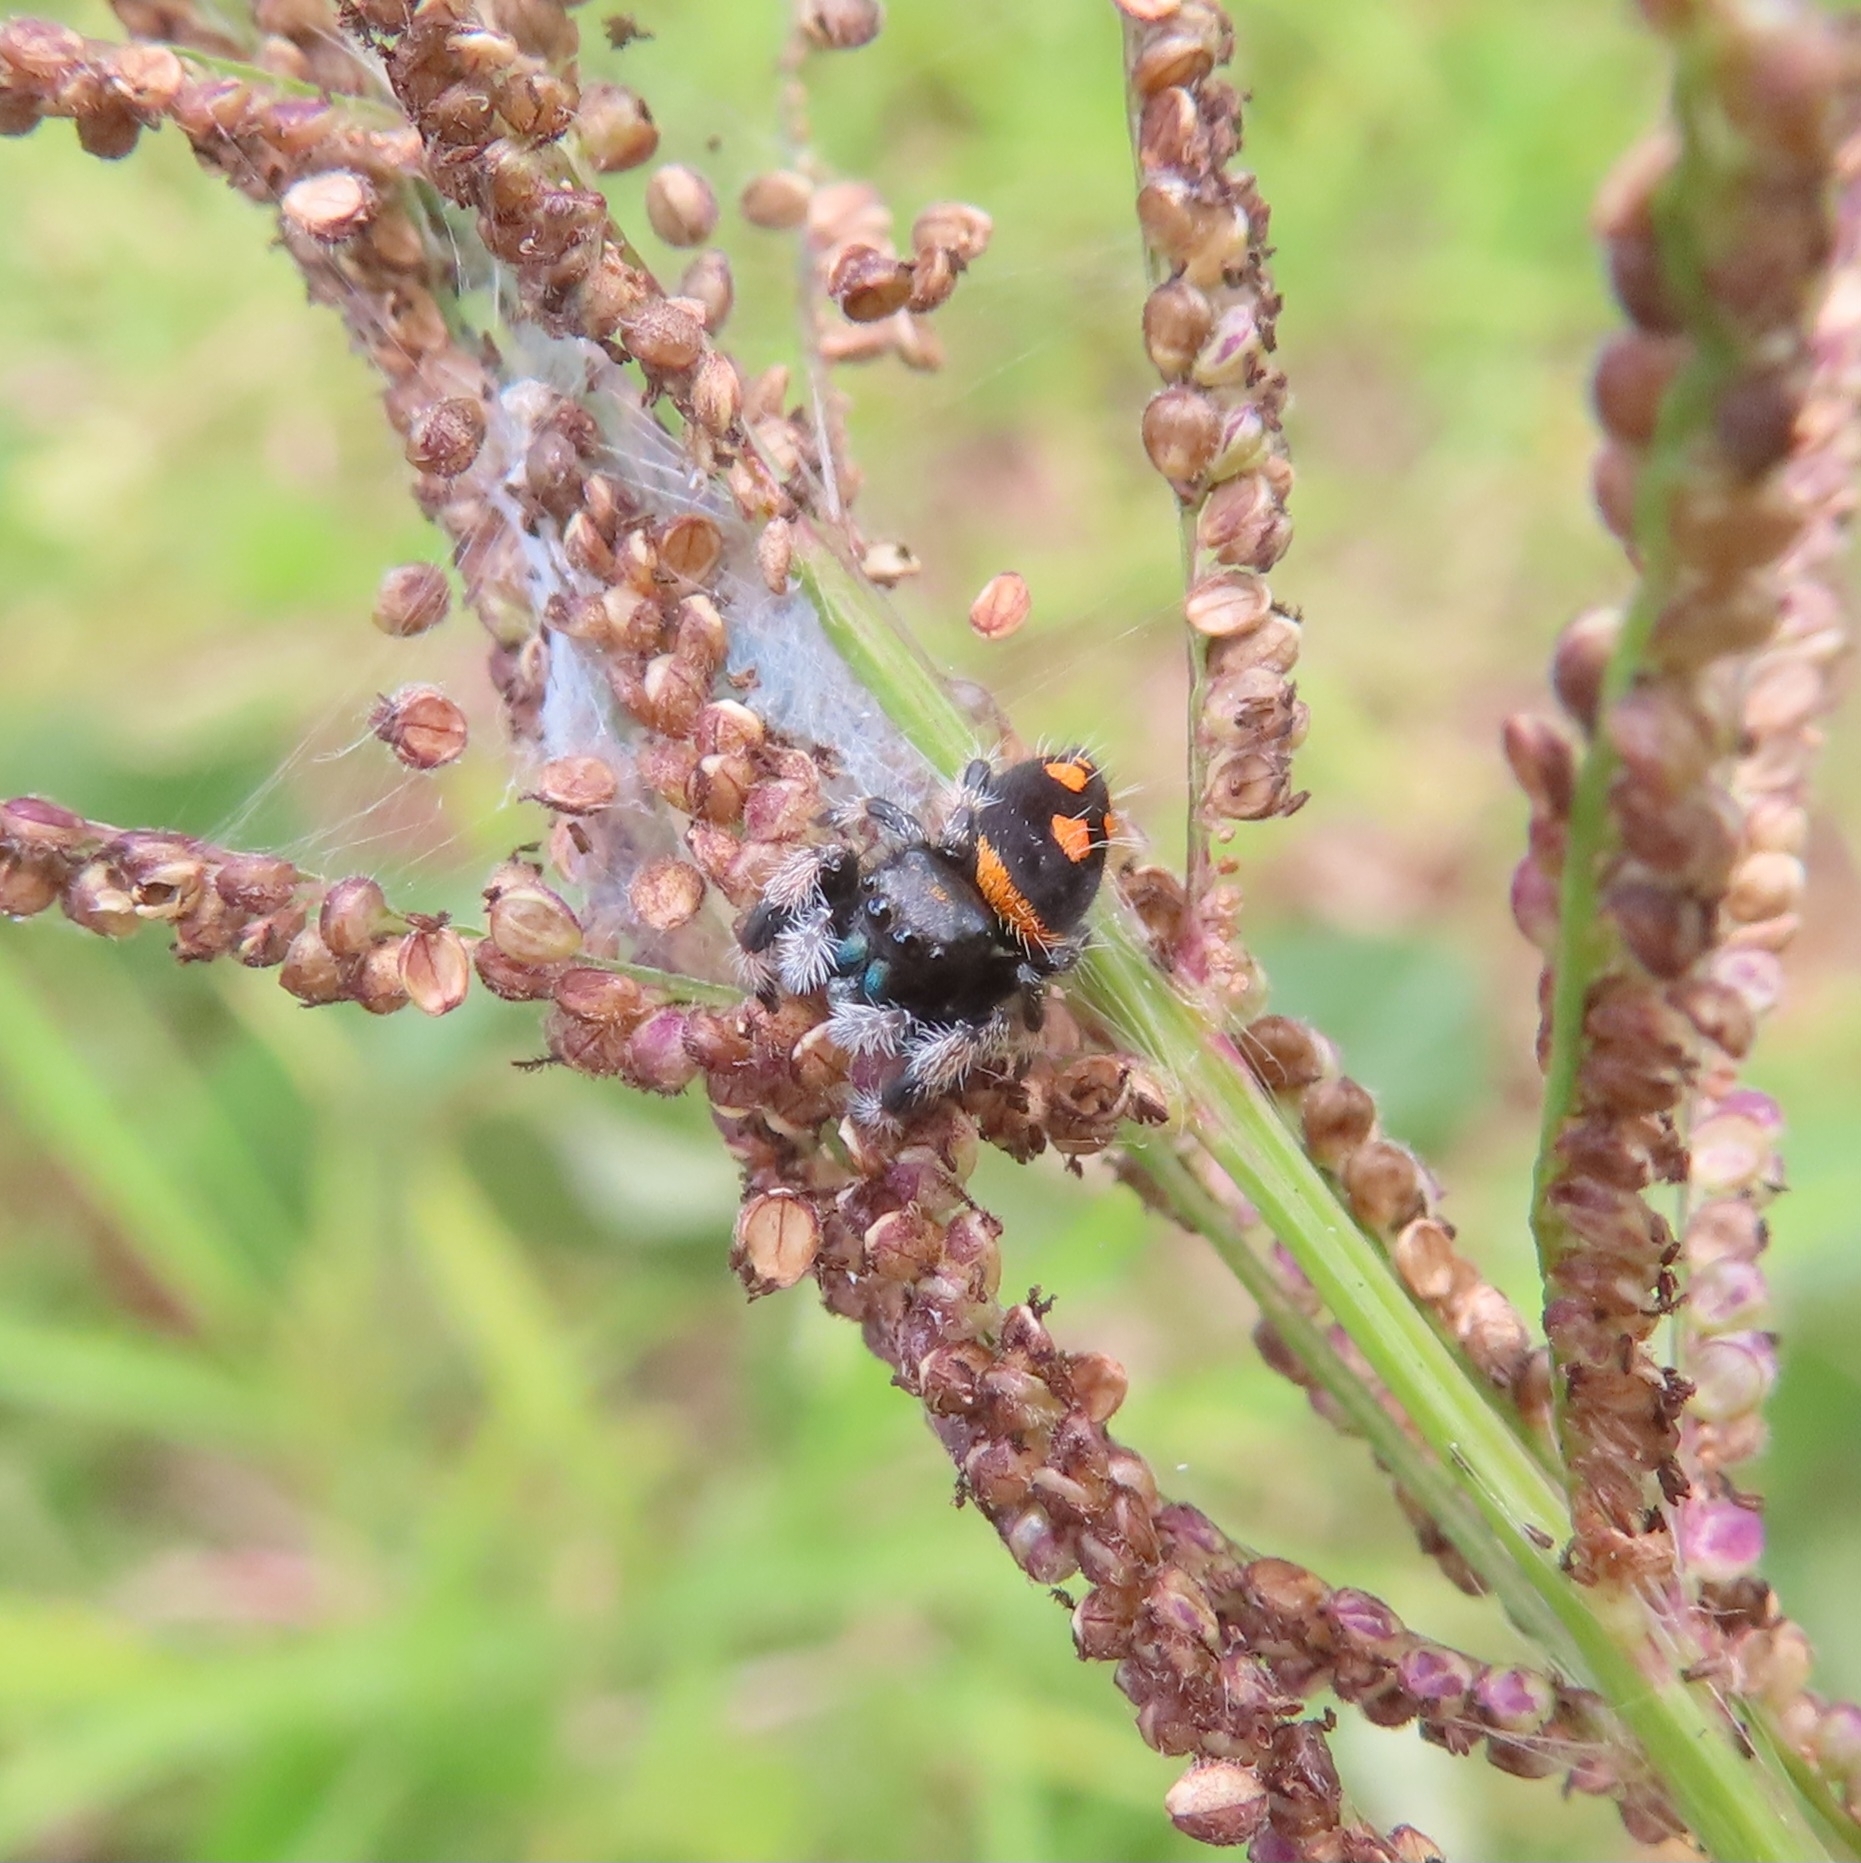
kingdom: Animalia
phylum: Arthropoda
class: Arachnida
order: Araneae
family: Salticidae
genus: Phidippus
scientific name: Phidippus regius
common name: Regal jumper
